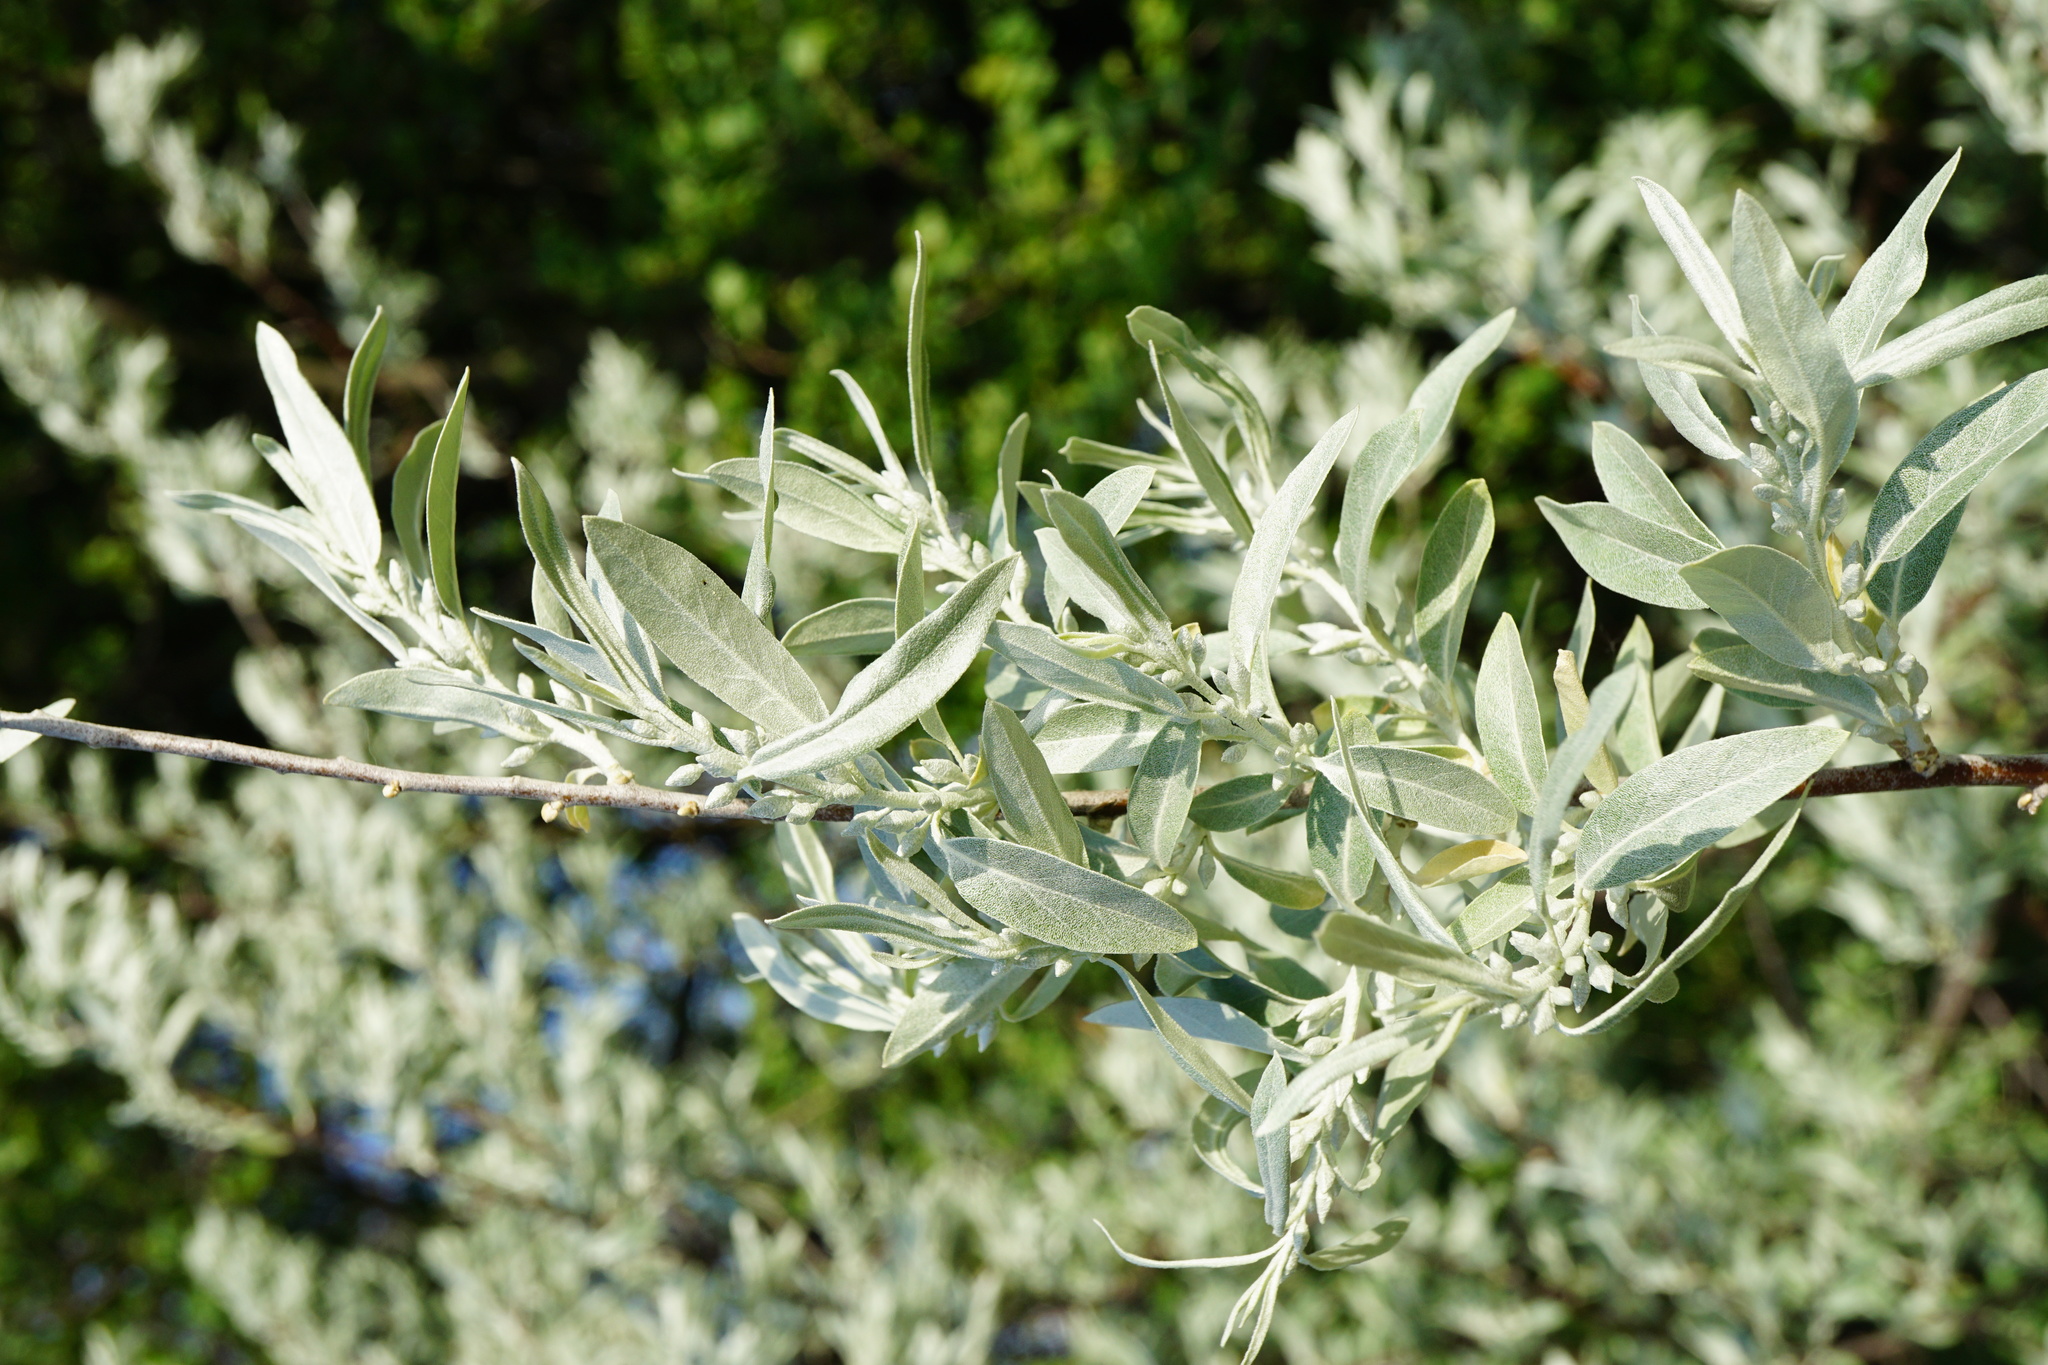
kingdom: Plantae
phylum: Tracheophyta
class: Magnoliopsida
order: Rosales
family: Elaeagnaceae
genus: Elaeagnus
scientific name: Elaeagnus angustifolia
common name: Russian olive
